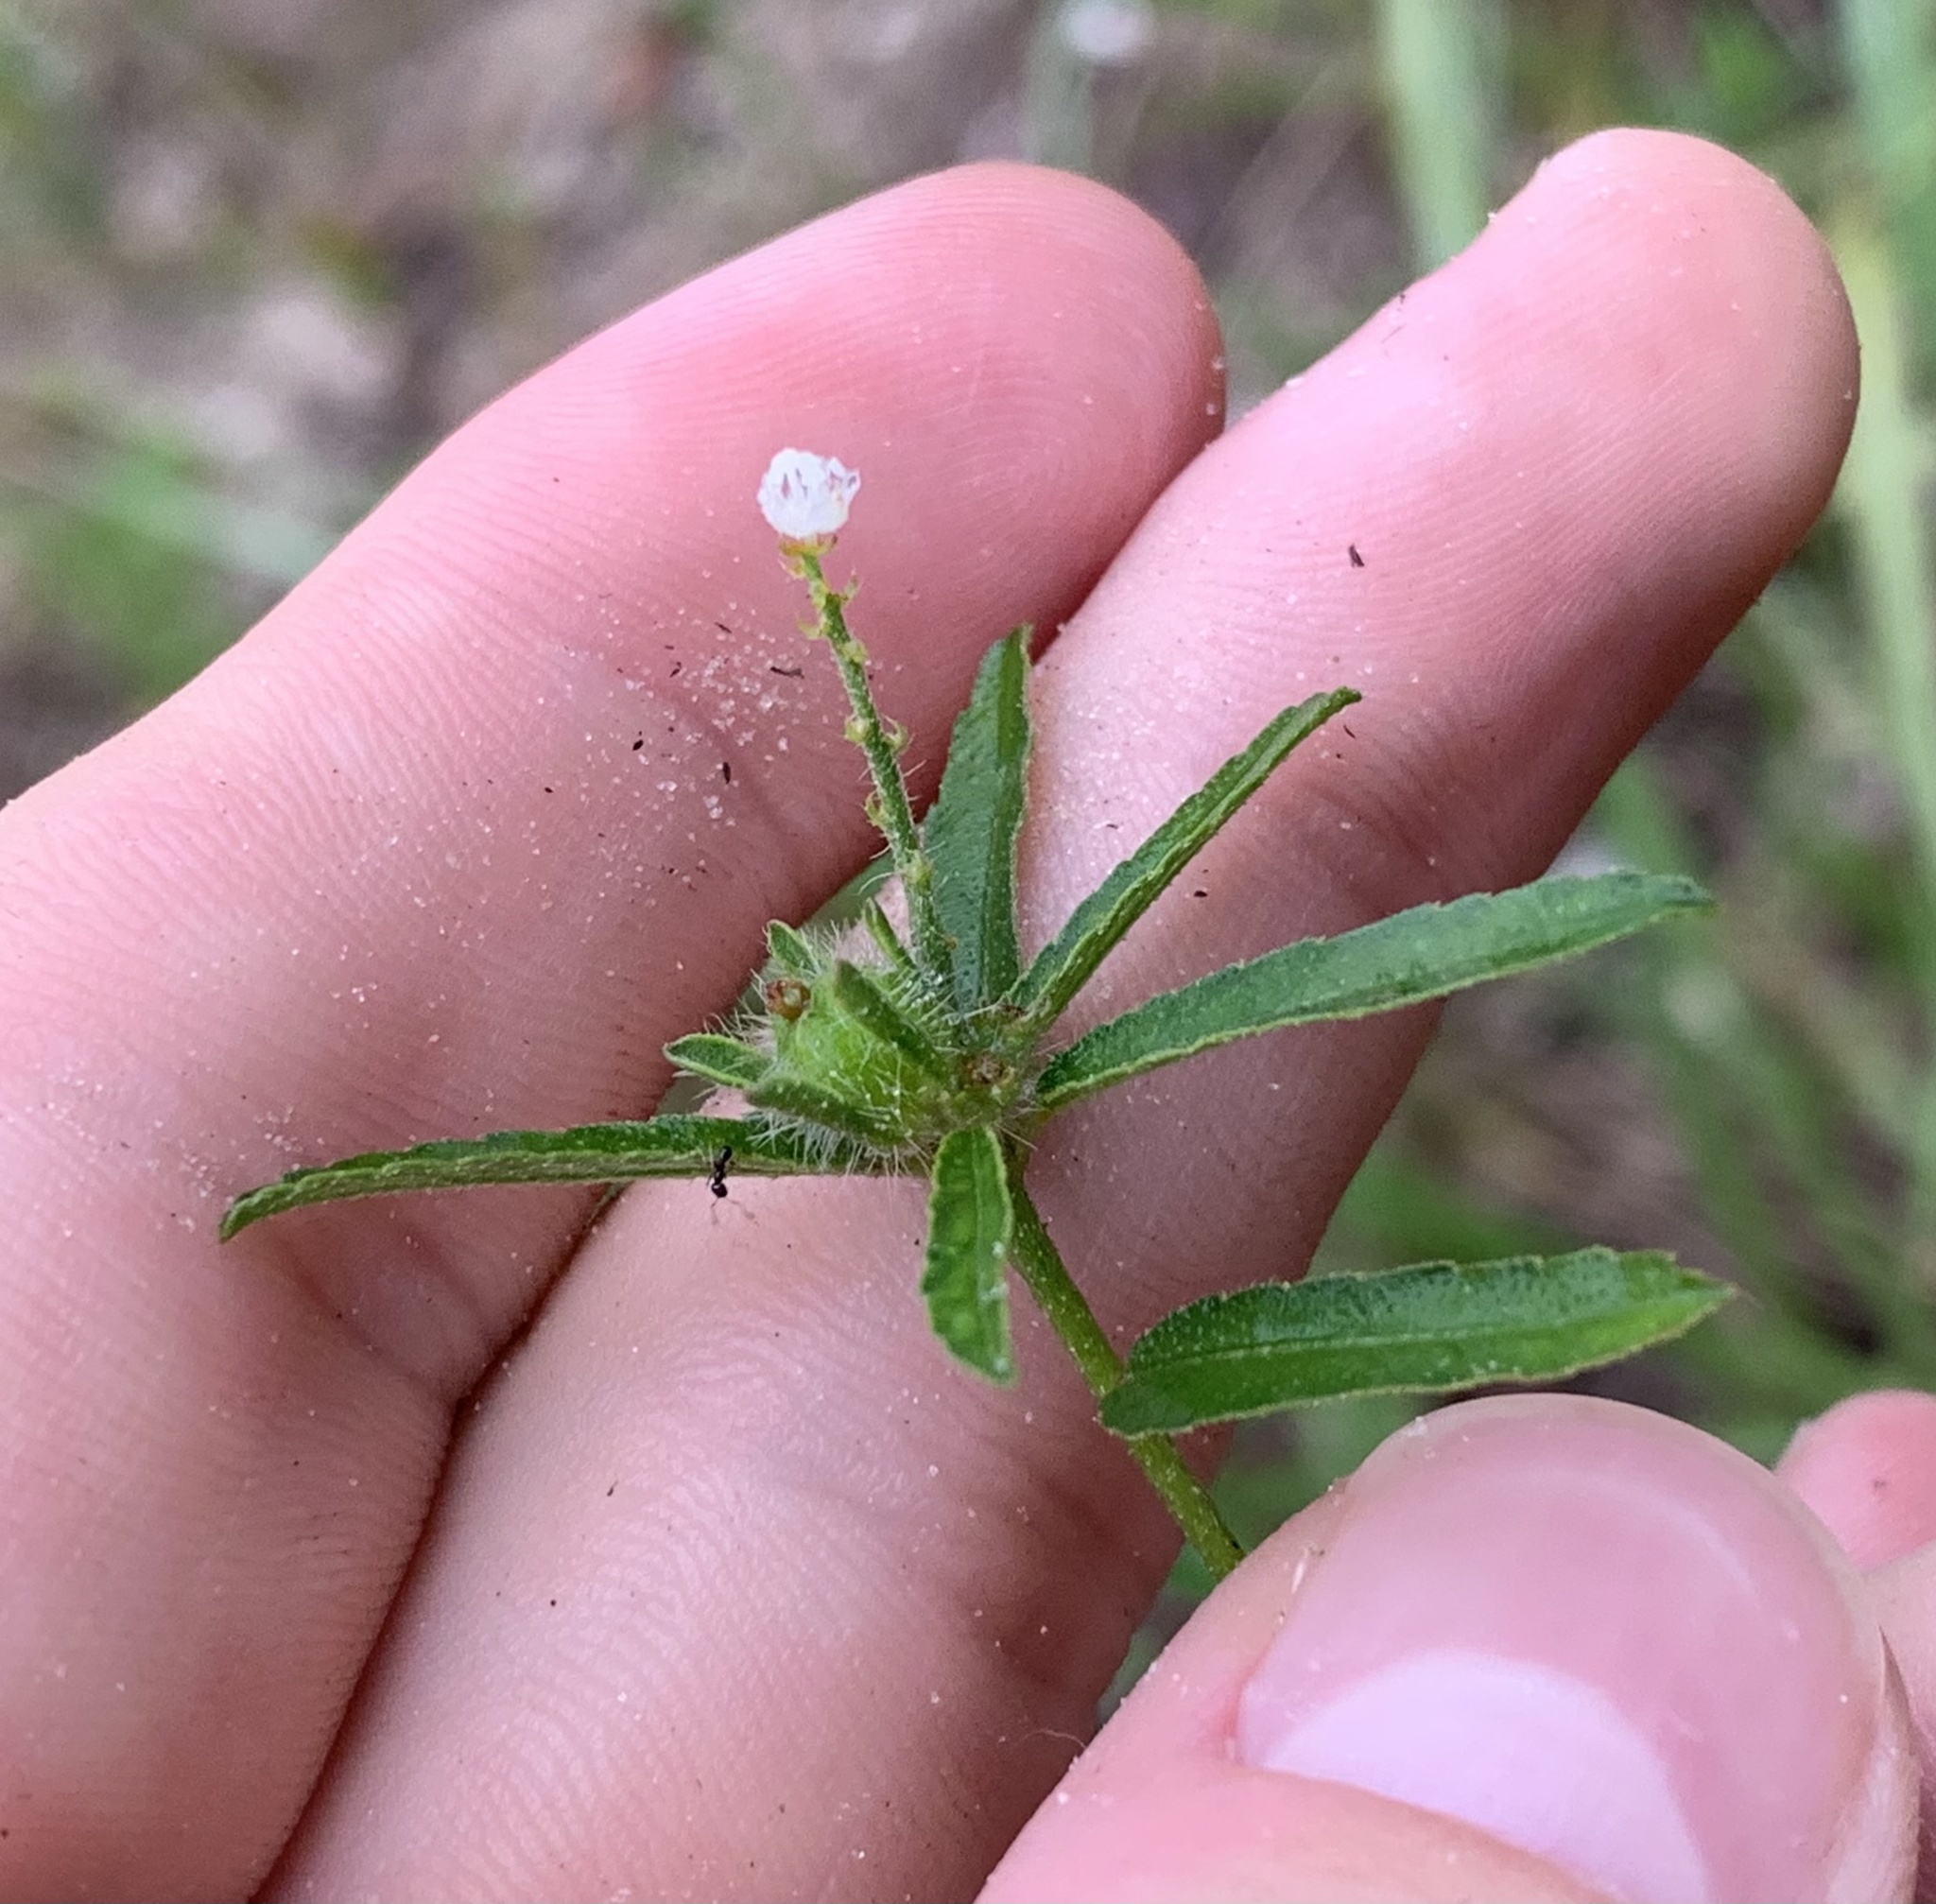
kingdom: Plantae
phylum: Tracheophyta
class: Magnoliopsida
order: Malpighiales
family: Euphorbiaceae
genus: Croton
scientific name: Croton glandulosus
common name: Tropic croton
